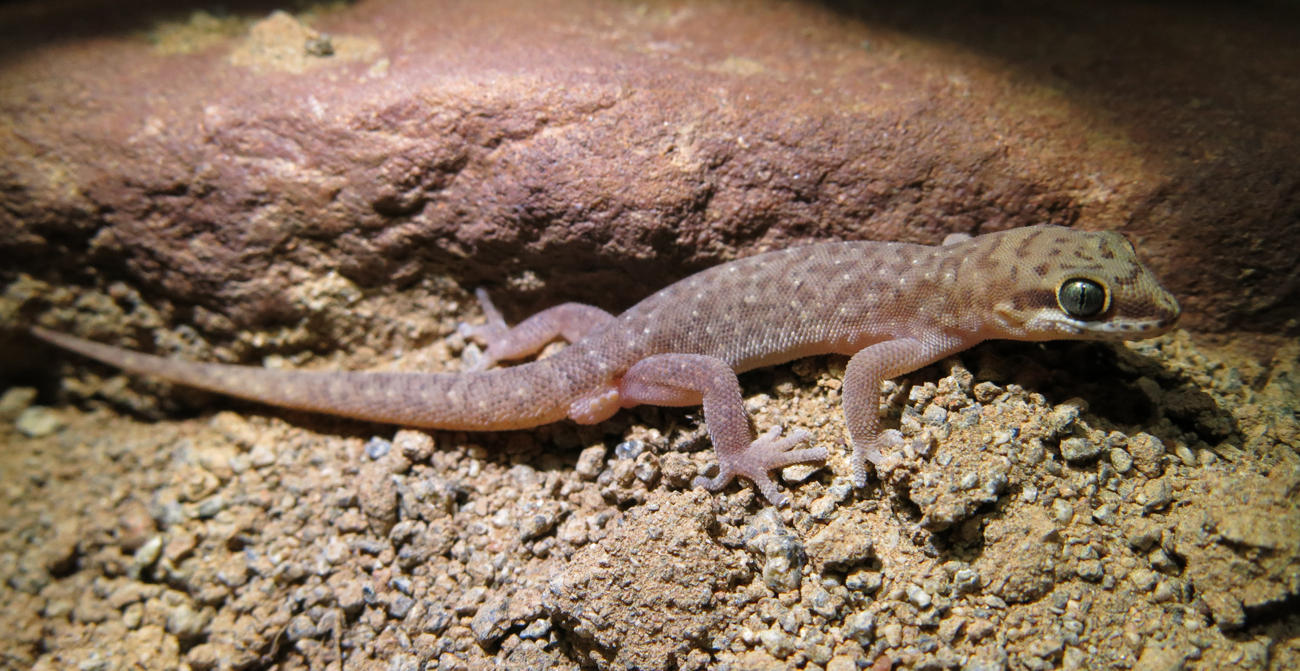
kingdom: Animalia
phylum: Chordata
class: Squamata
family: Gekkonidae
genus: Pachydactylus
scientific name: Pachydactylus punctatus
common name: Pointed thick-toed gecko
